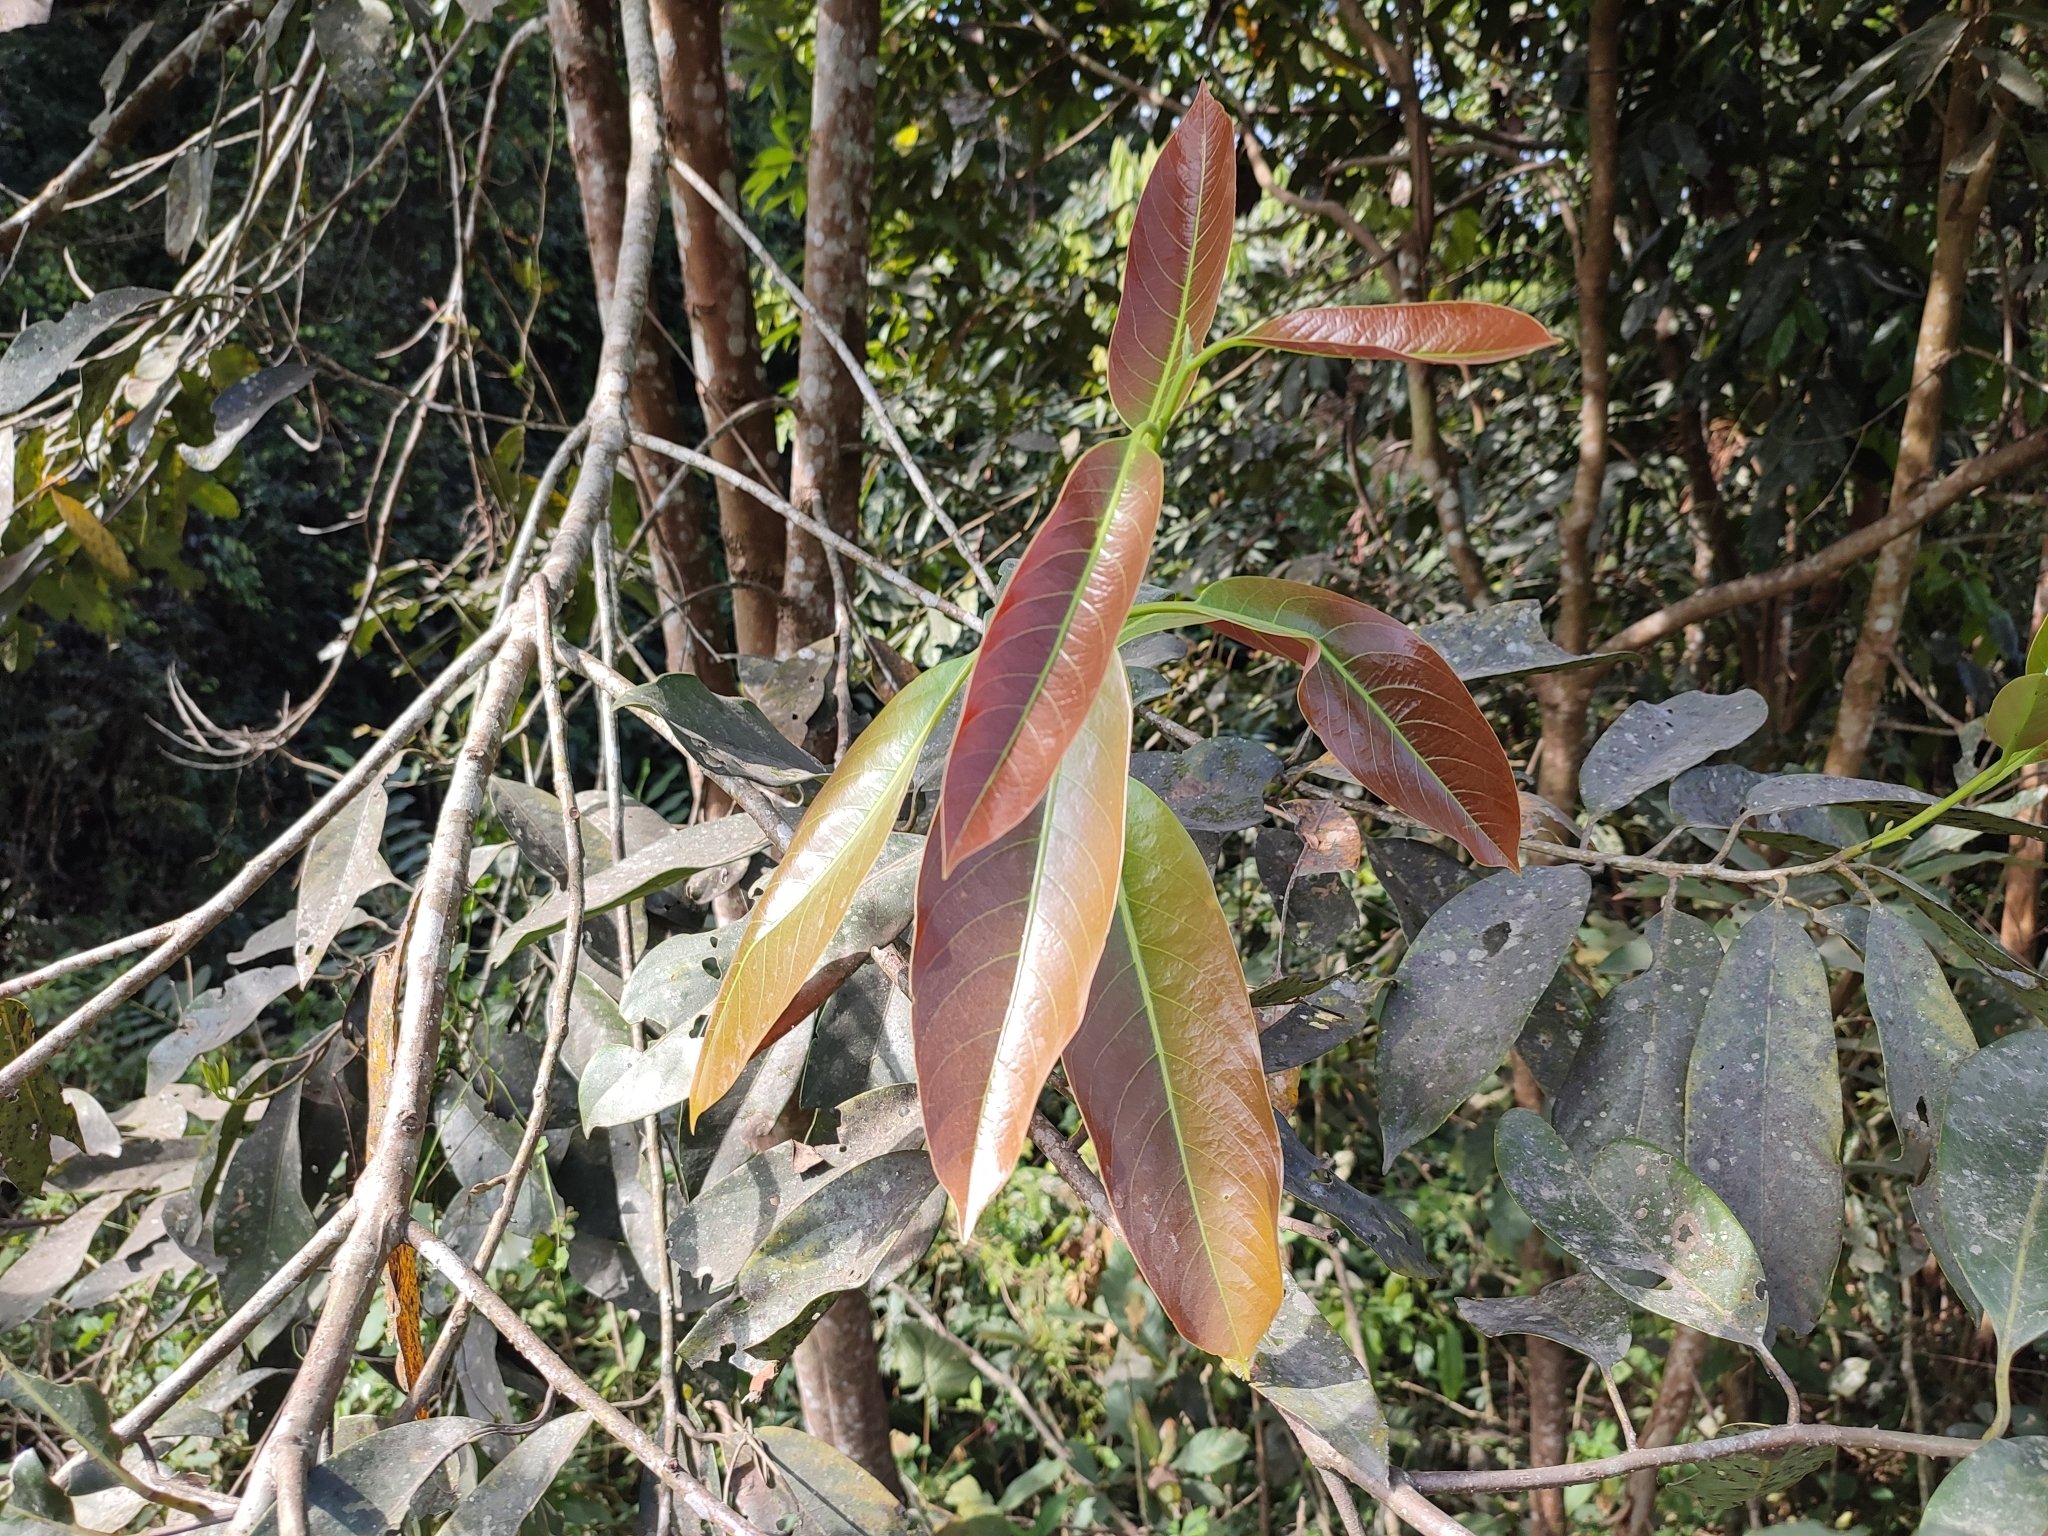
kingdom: Plantae
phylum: Tracheophyta
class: Magnoliopsida
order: Laurales
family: Lauraceae
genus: Litsea
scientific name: Litsea nigrescens
